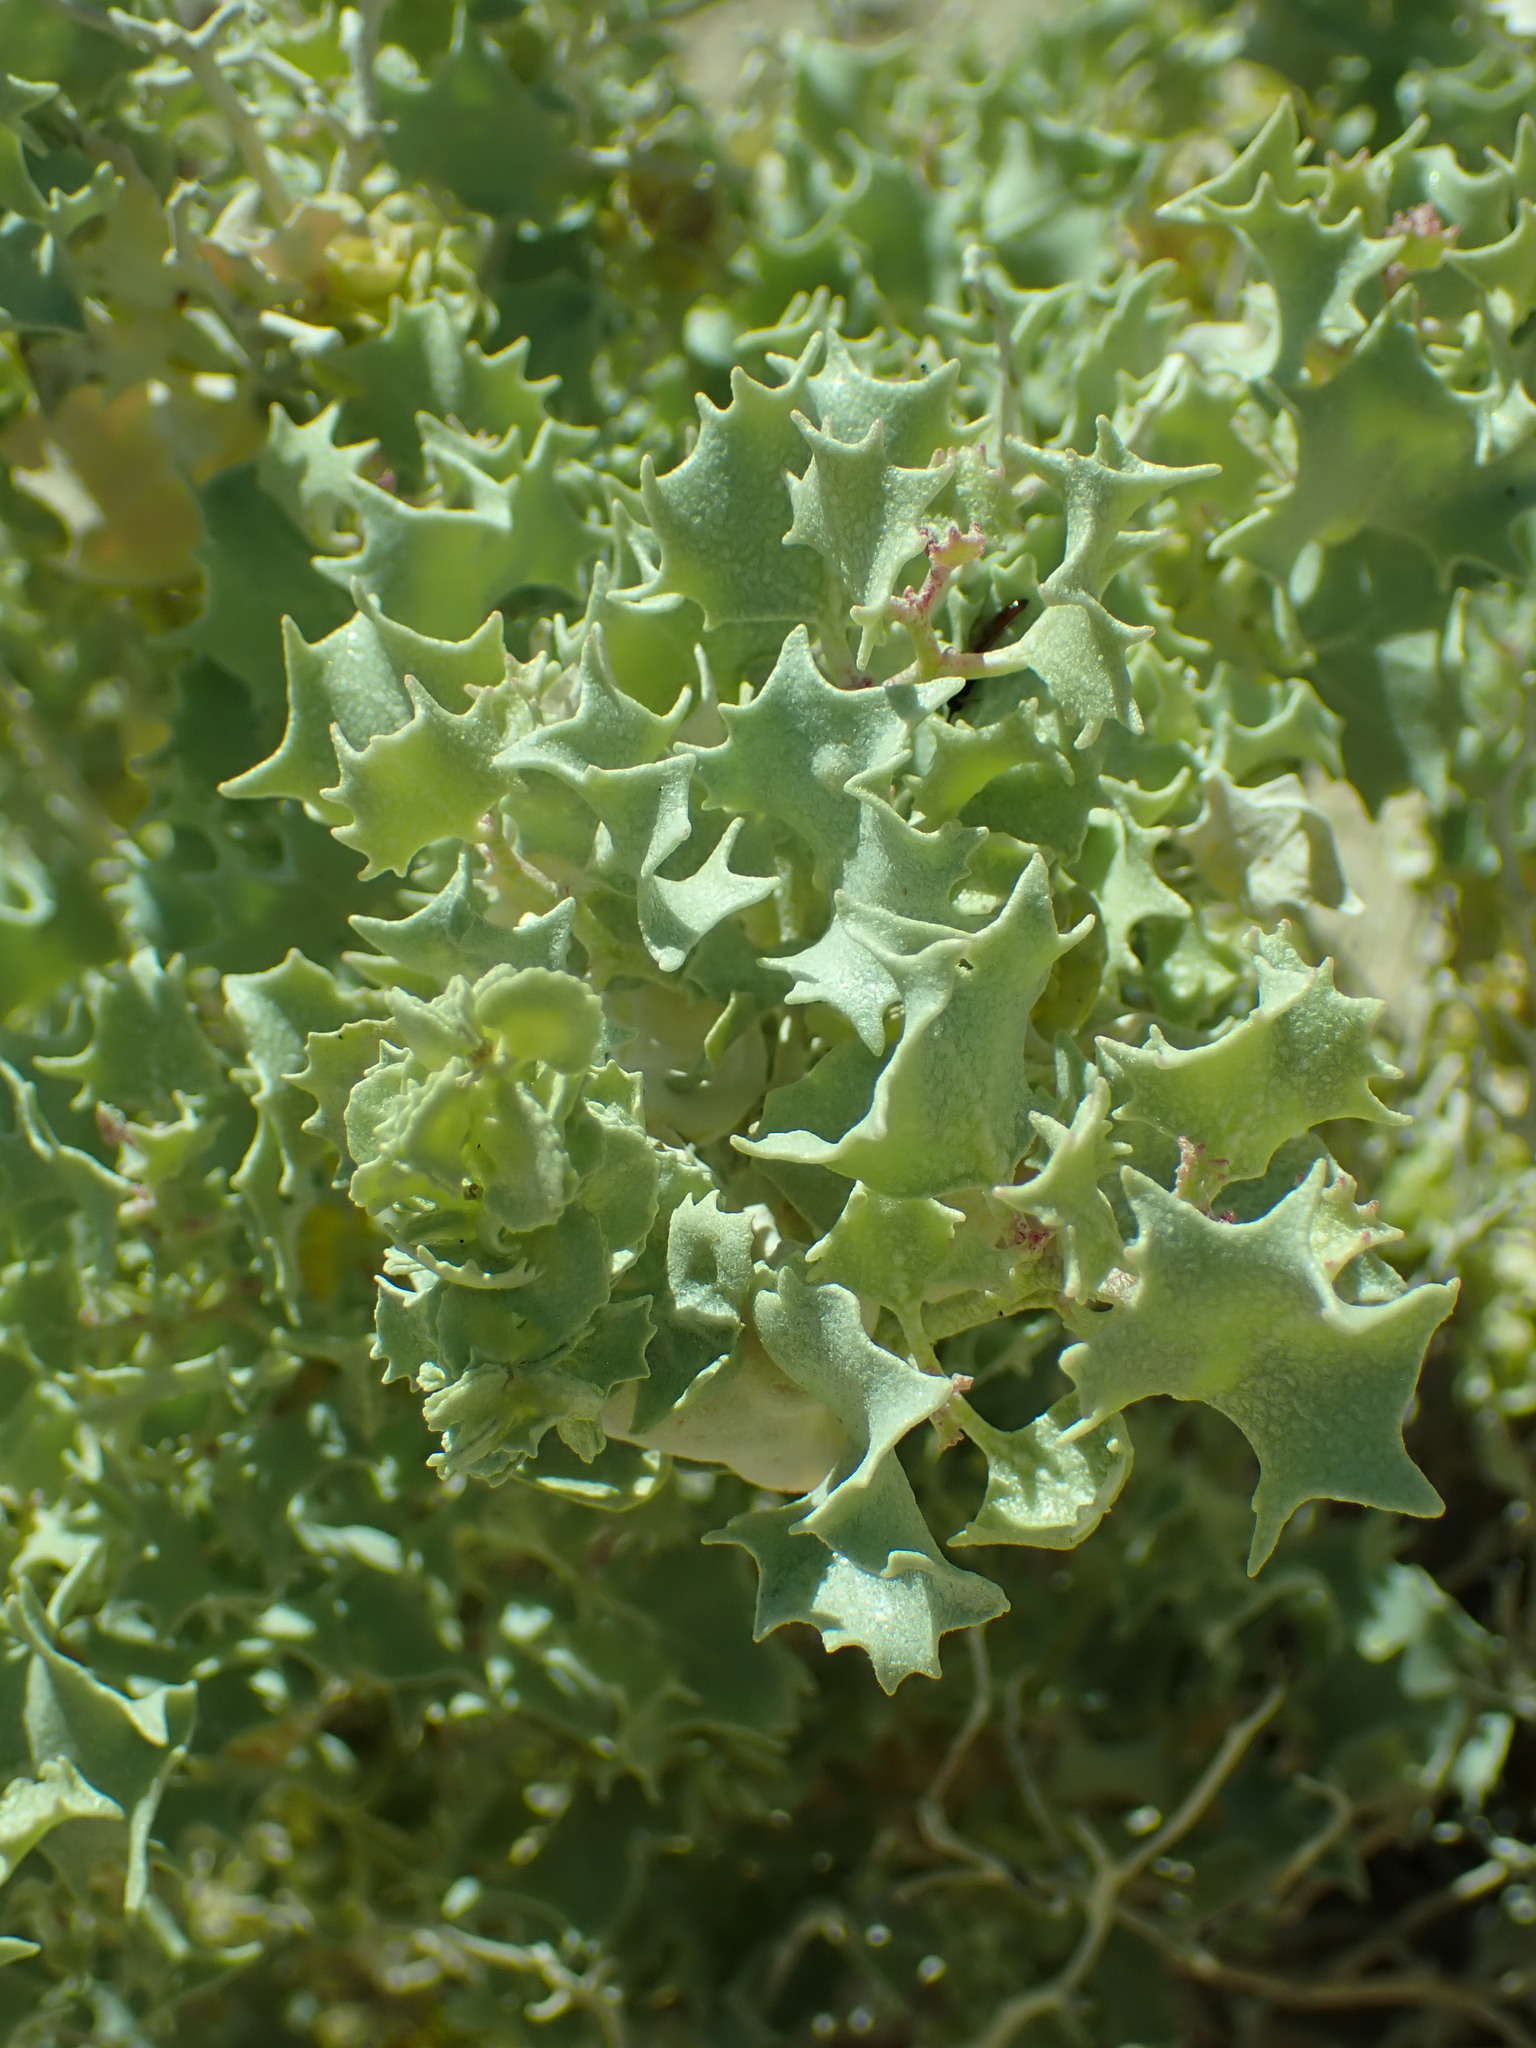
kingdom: Plantae
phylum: Tracheophyta
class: Magnoliopsida
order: Caryophyllales
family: Amaranthaceae
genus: Atriplex
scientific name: Atriplex hymenelytra
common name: Desert-holly
